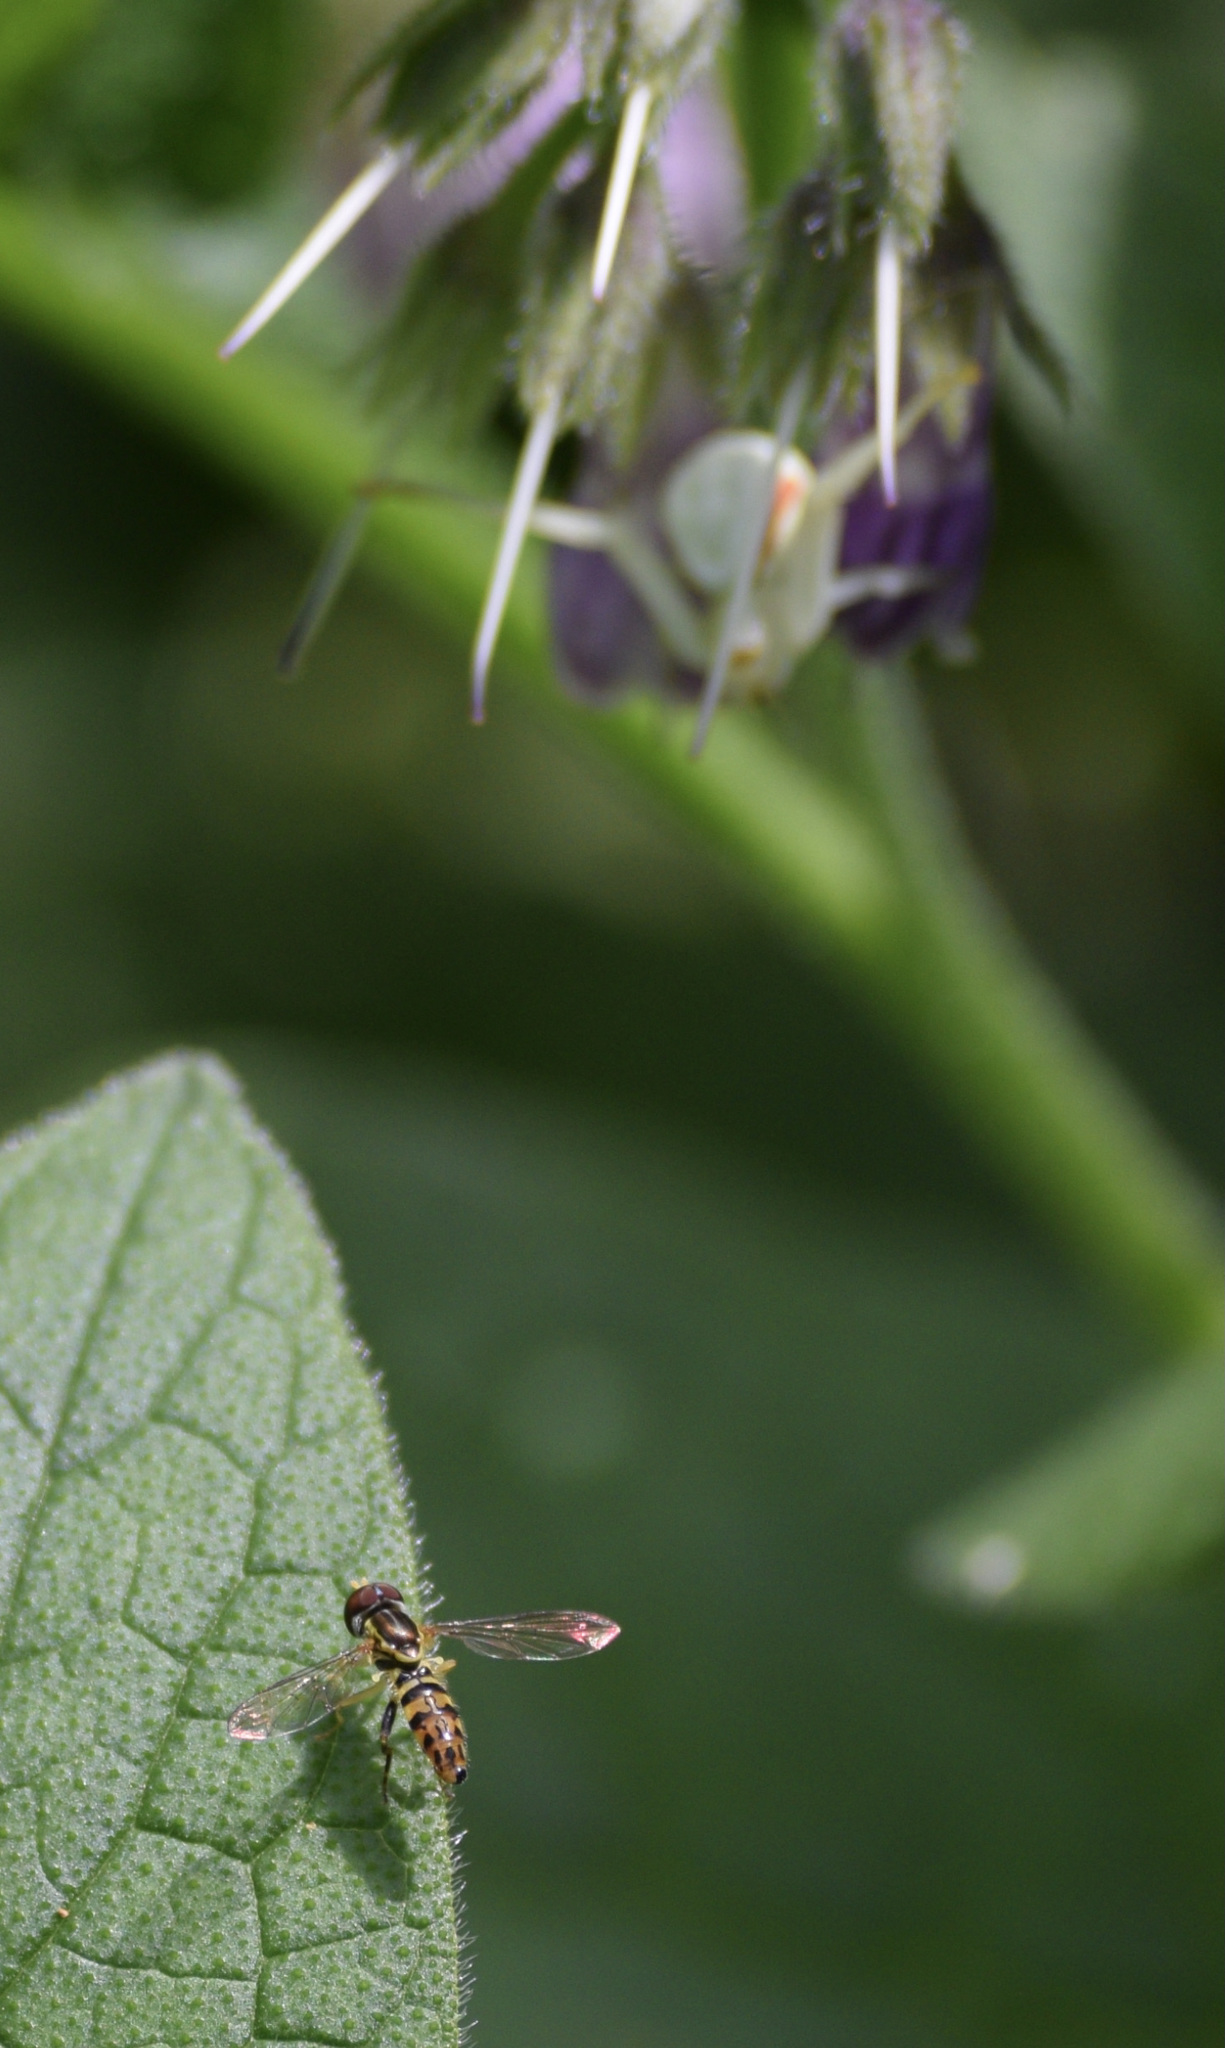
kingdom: Animalia
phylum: Arthropoda
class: Insecta
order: Diptera
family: Syrphidae
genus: Toxomerus
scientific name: Toxomerus geminatus
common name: Eastern calligrapher
